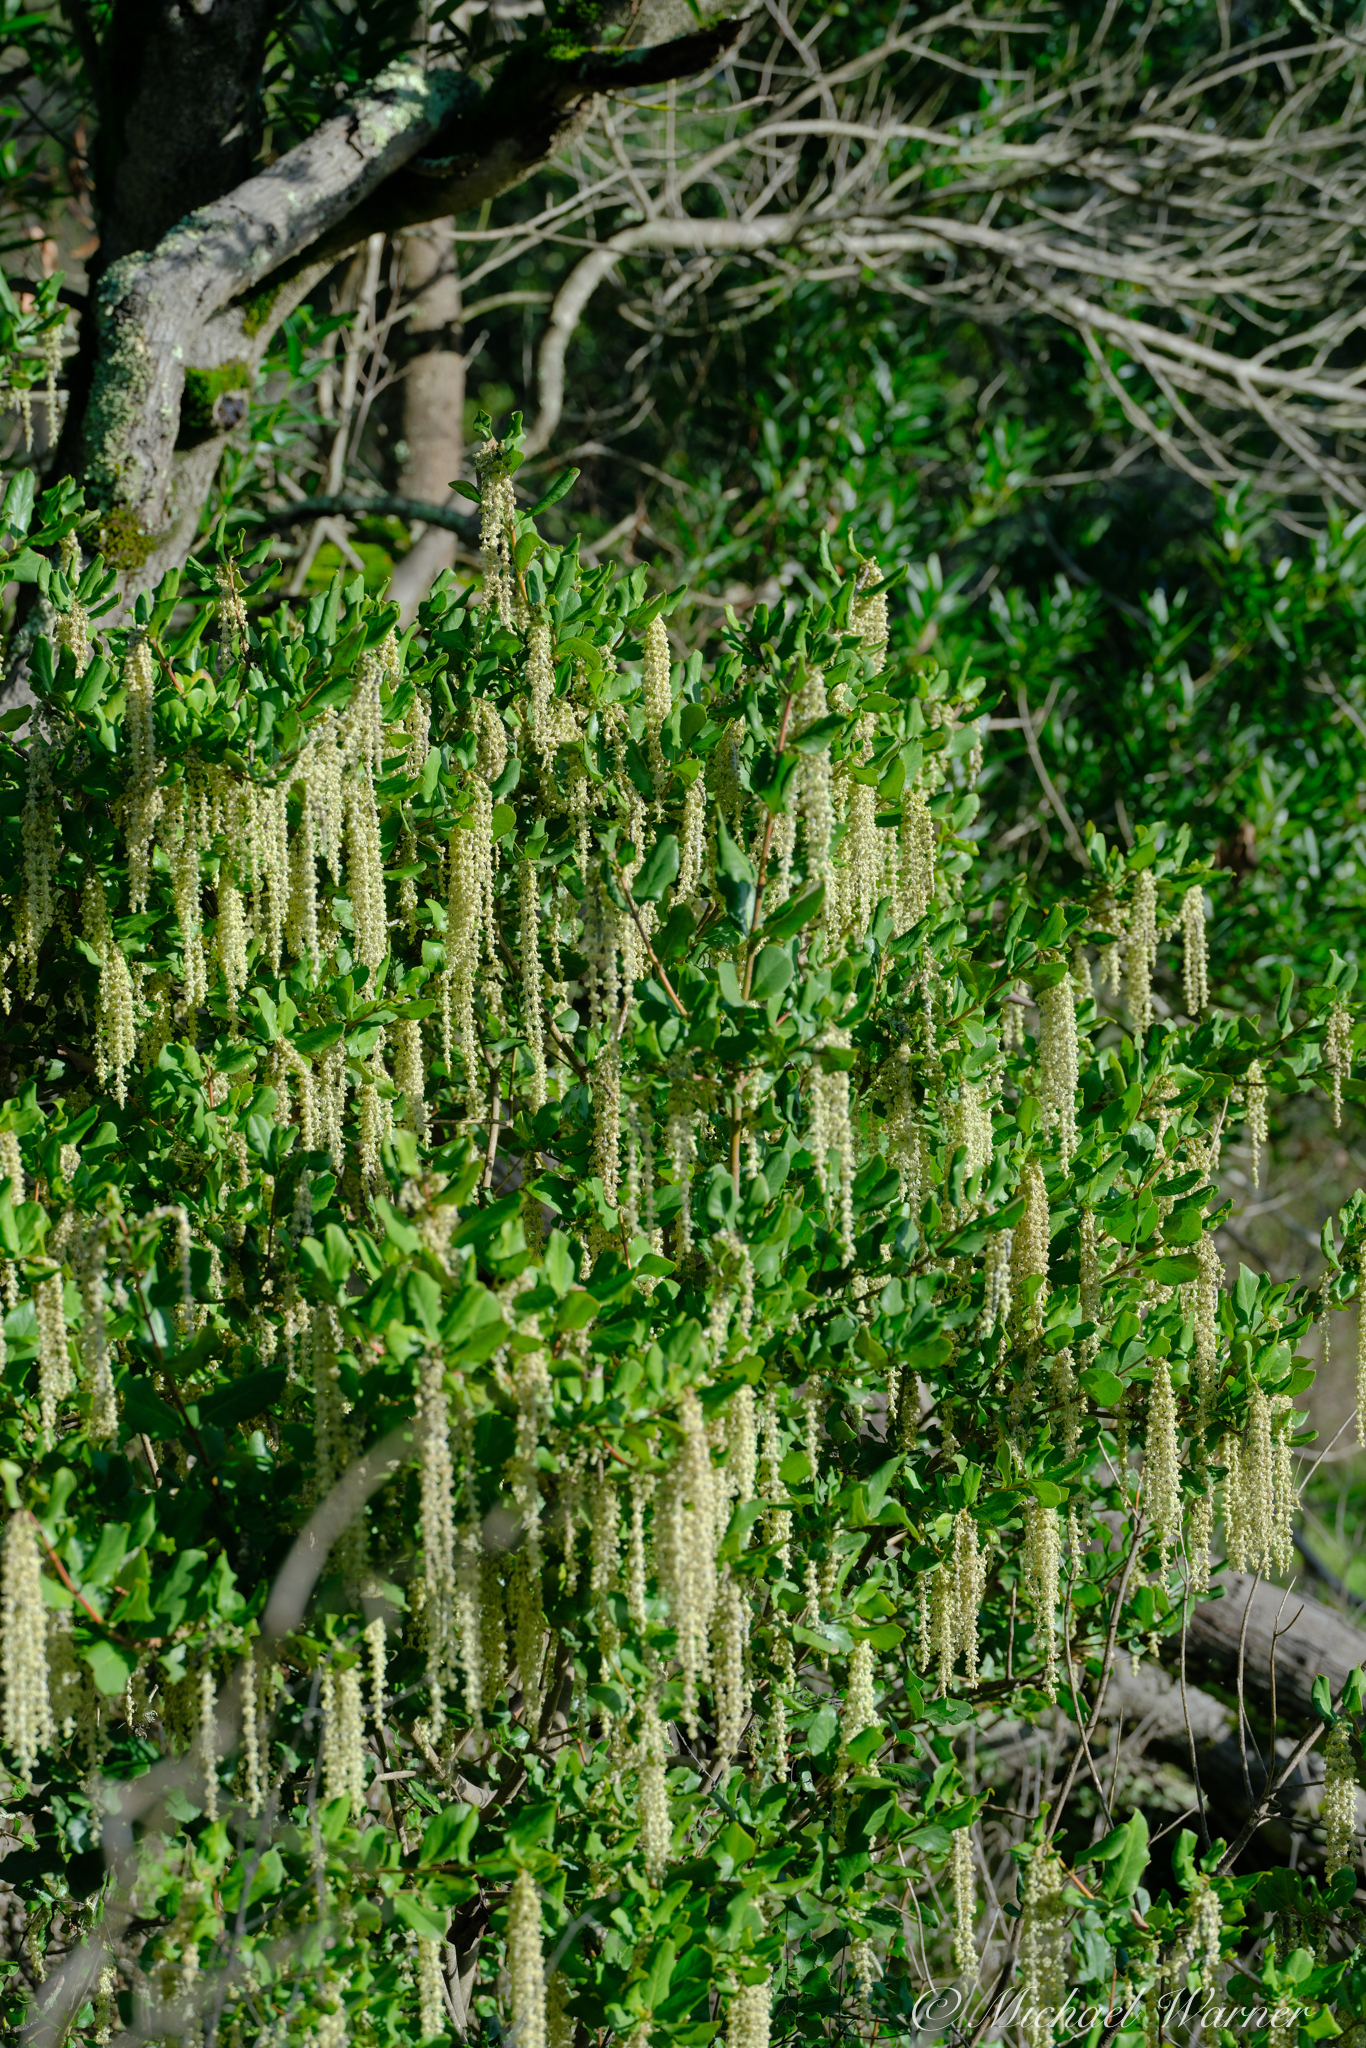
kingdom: Plantae
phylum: Tracheophyta
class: Magnoliopsida
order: Garryales
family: Garryaceae
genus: Garrya
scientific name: Garrya elliptica
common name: Silk-tassel
